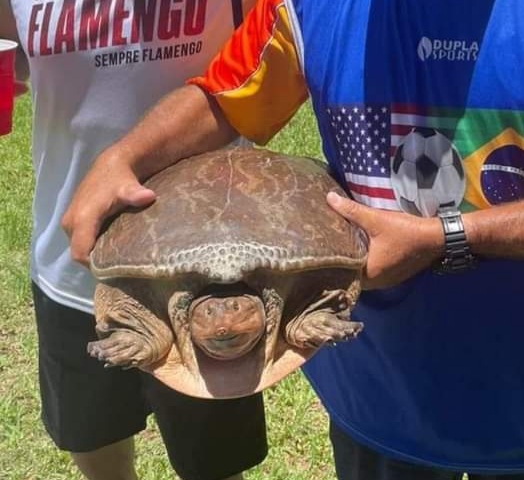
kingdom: Animalia
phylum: Chordata
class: Testudines
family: Trionychidae
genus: Apalone
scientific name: Apalone ferox
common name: Florida softshell turtle
